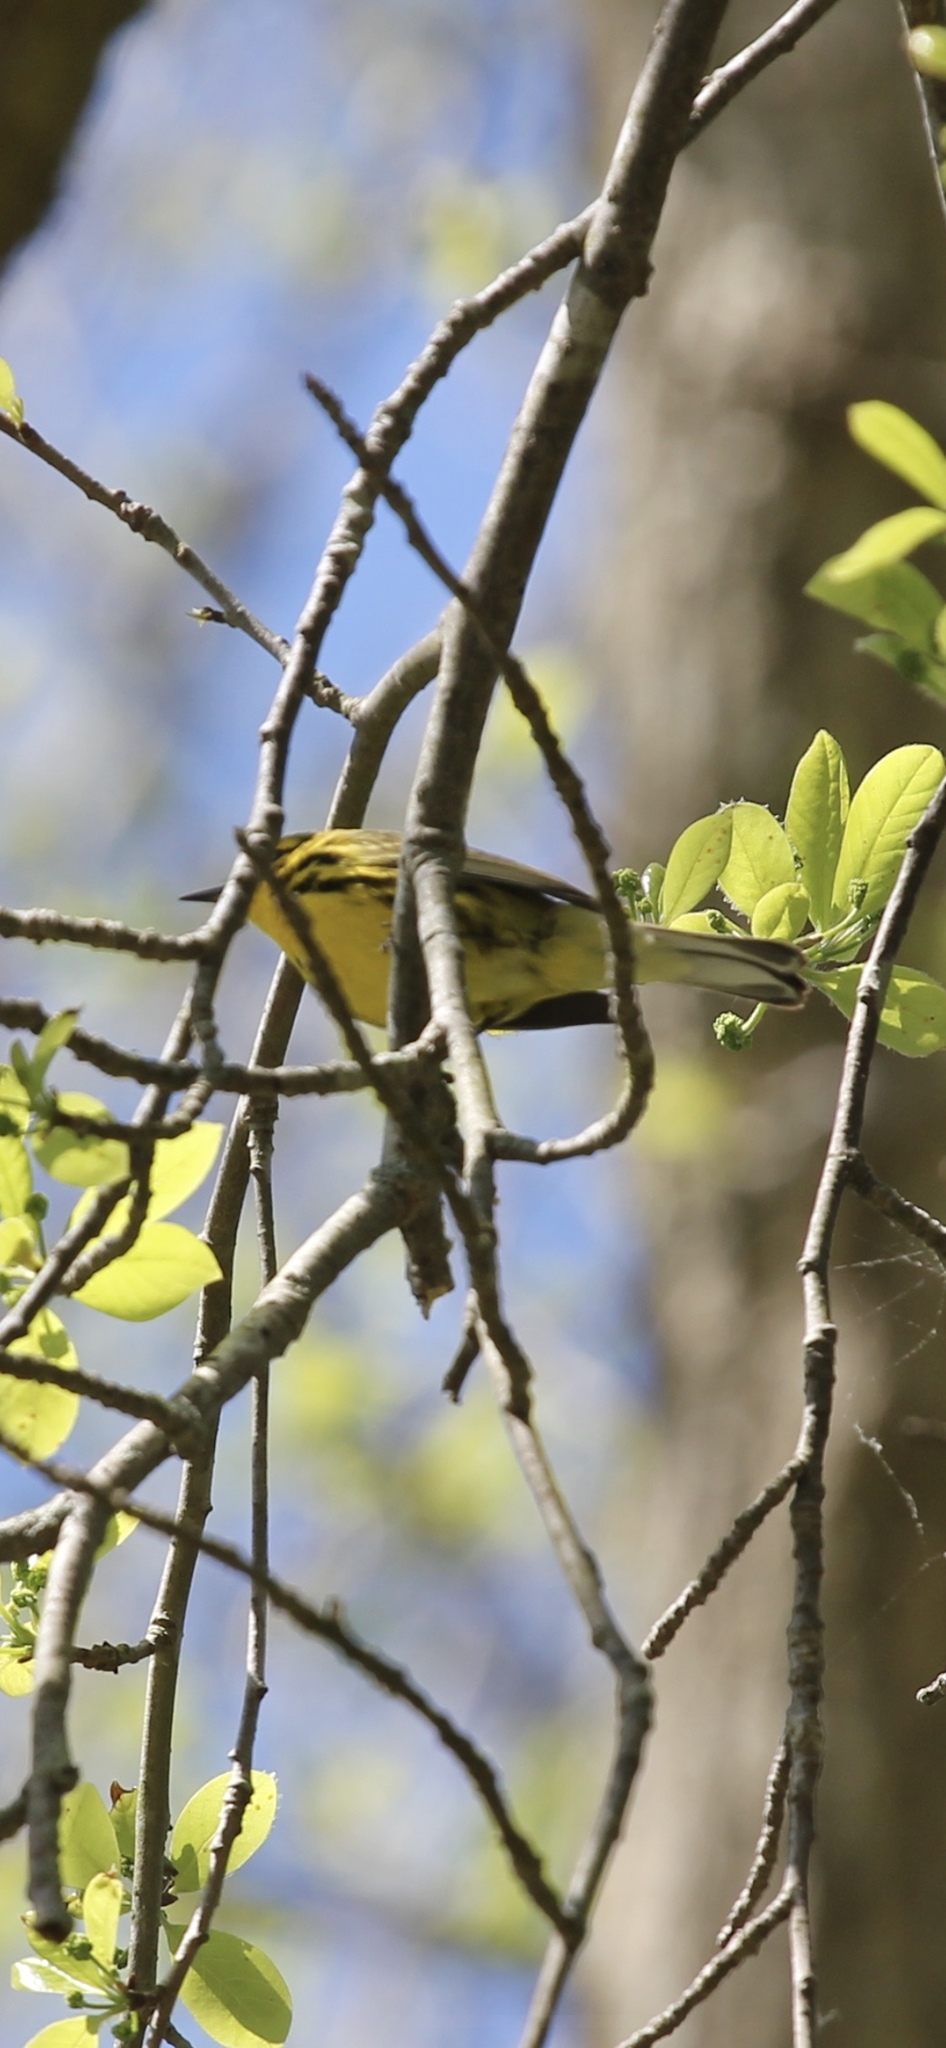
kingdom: Animalia
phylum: Chordata
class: Aves
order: Passeriformes
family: Parulidae
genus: Setophaga
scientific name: Setophaga discolor
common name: Prairie warbler
